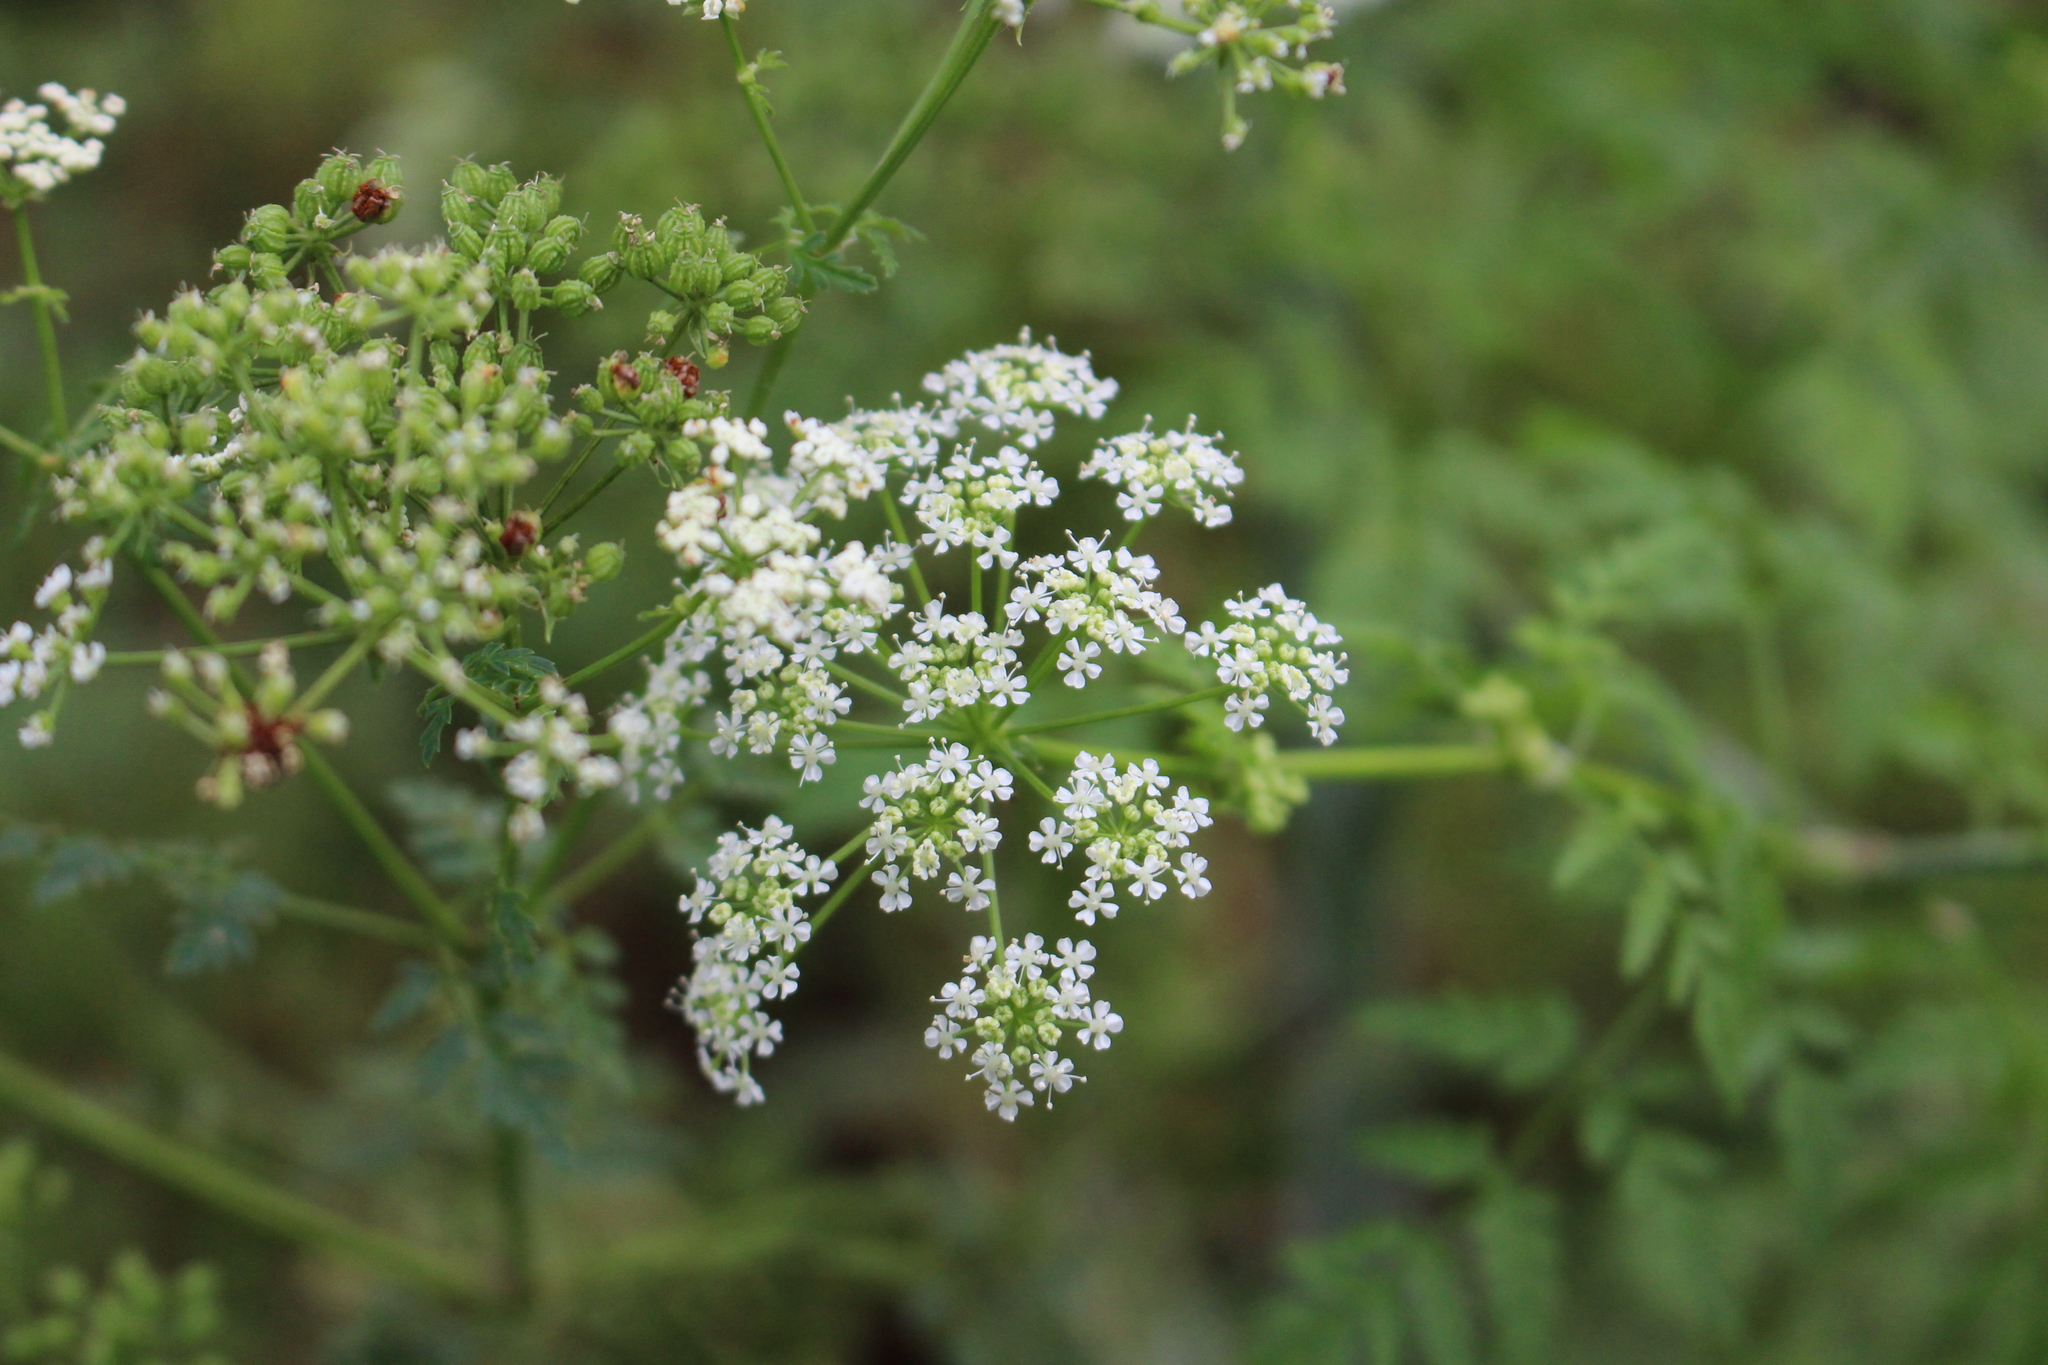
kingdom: Plantae
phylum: Tracheophyta
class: Magnoliopsida
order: Apiales
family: Apiaceae
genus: Conium
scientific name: Conium maculatum
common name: Hemlock
